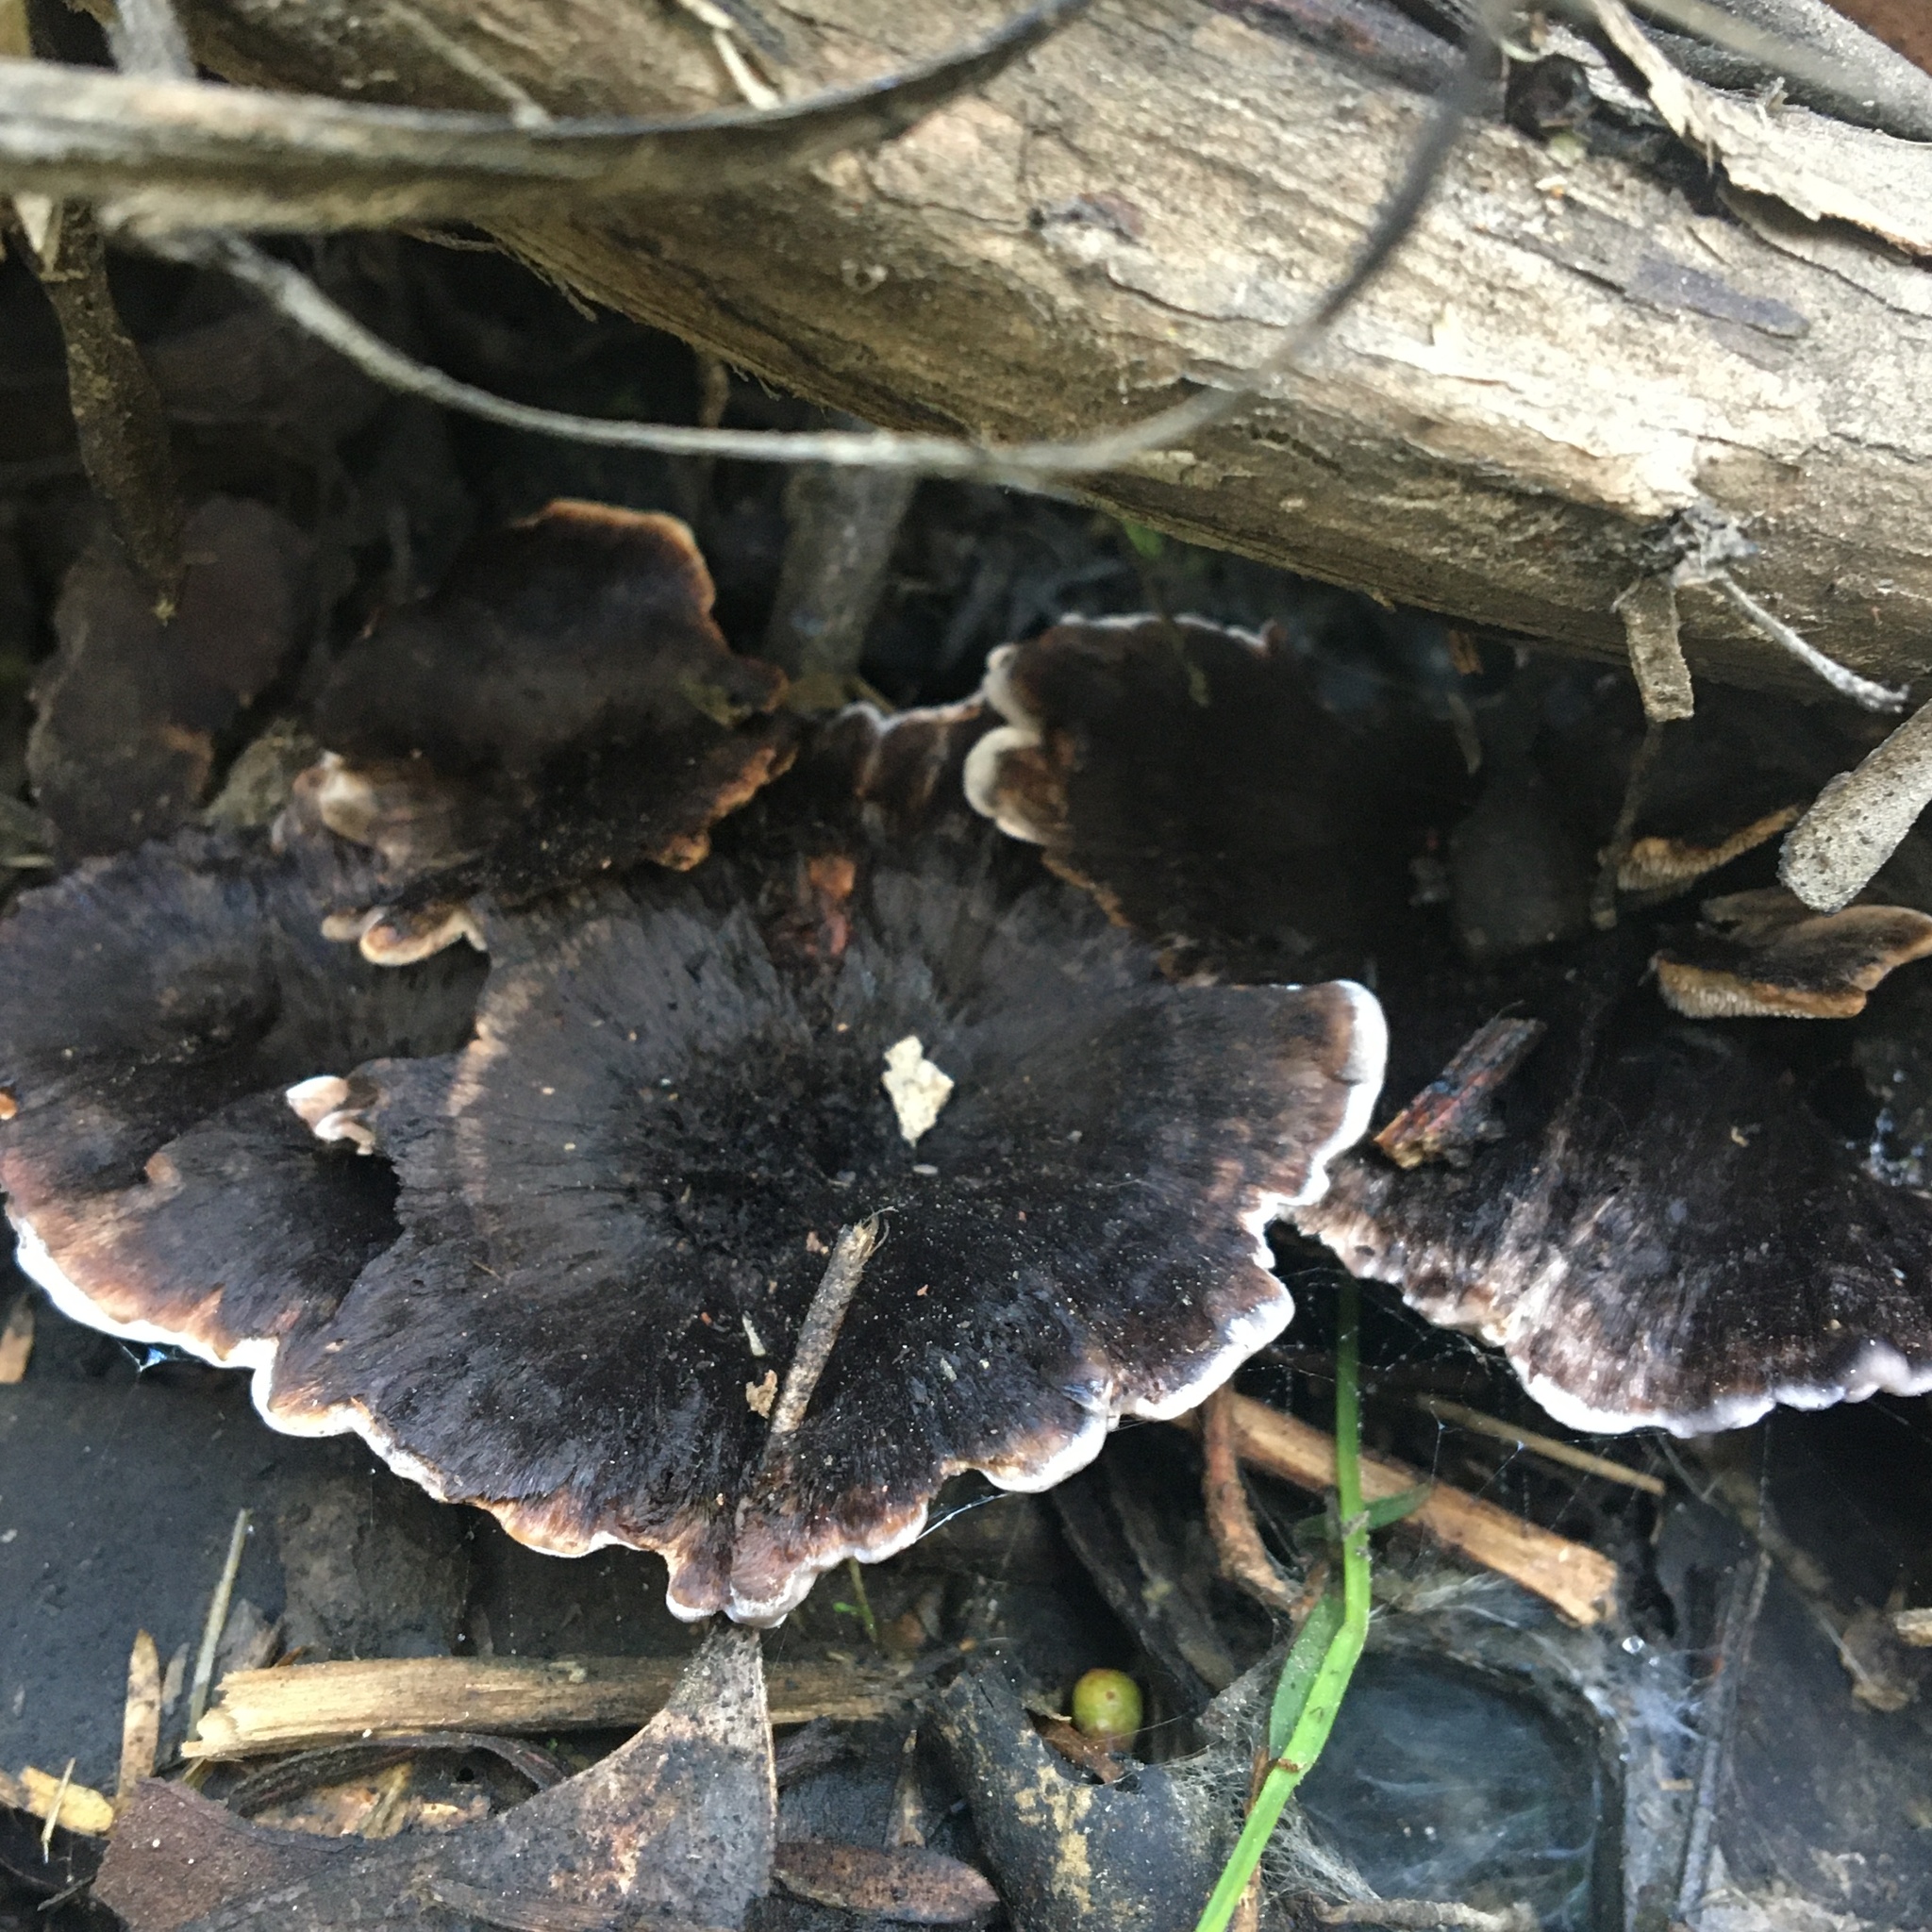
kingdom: Fungi
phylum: Basidiomycota
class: Agaricomycetes
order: Thelephorales
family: Thelephoraceae
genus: Phellodon
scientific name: Phellodon niger
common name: Black tooth
